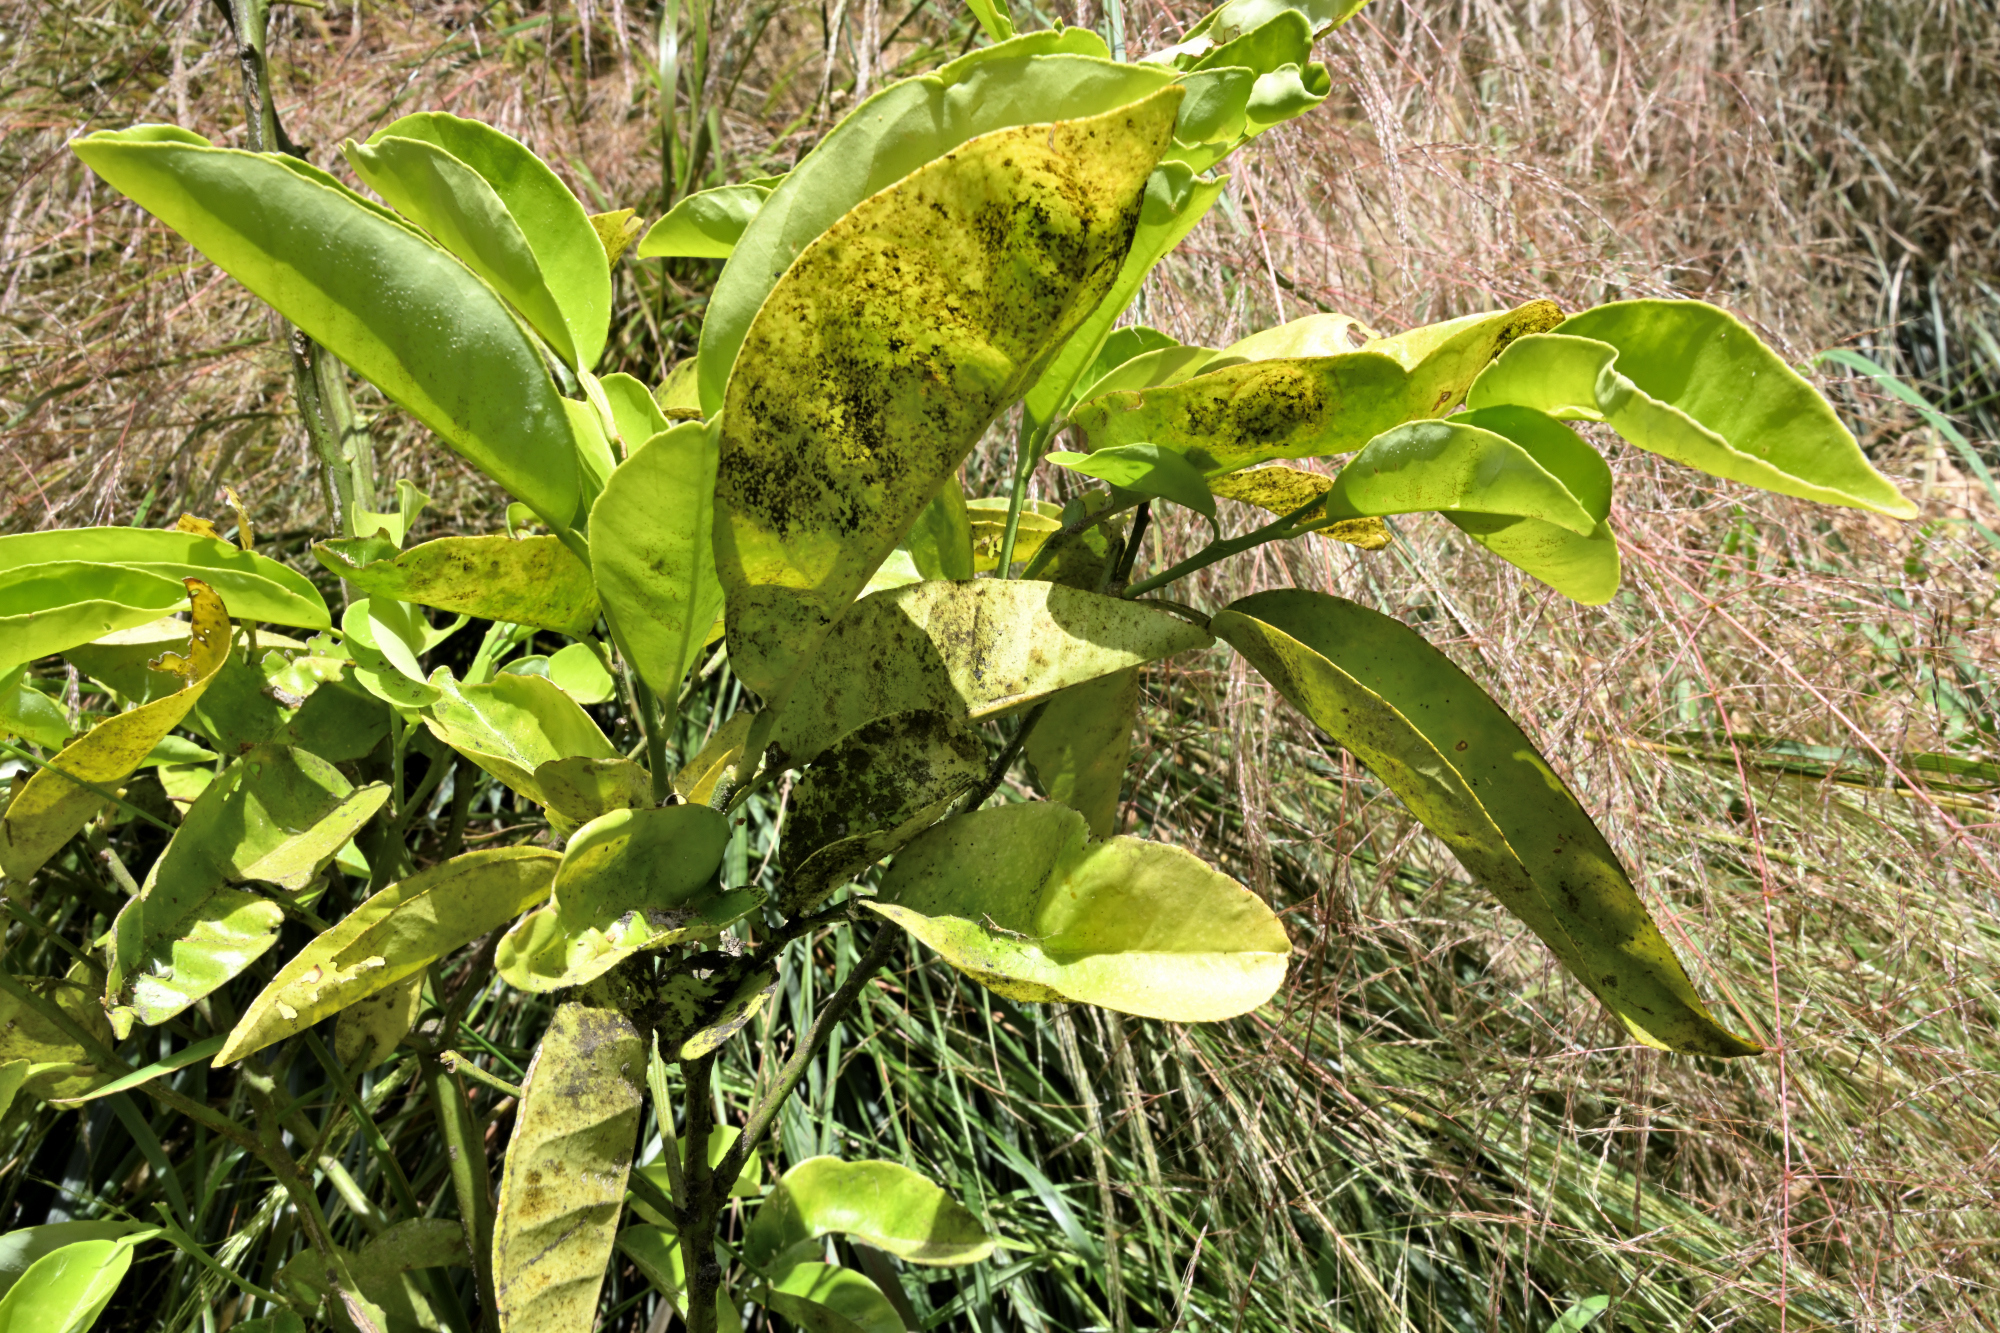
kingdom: Fungi
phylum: Ascomycota
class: Dothideomycetes
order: Pleosporales
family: Didymellaceae
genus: Chaetasbolisia
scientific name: Chaetasbolisia falcata
